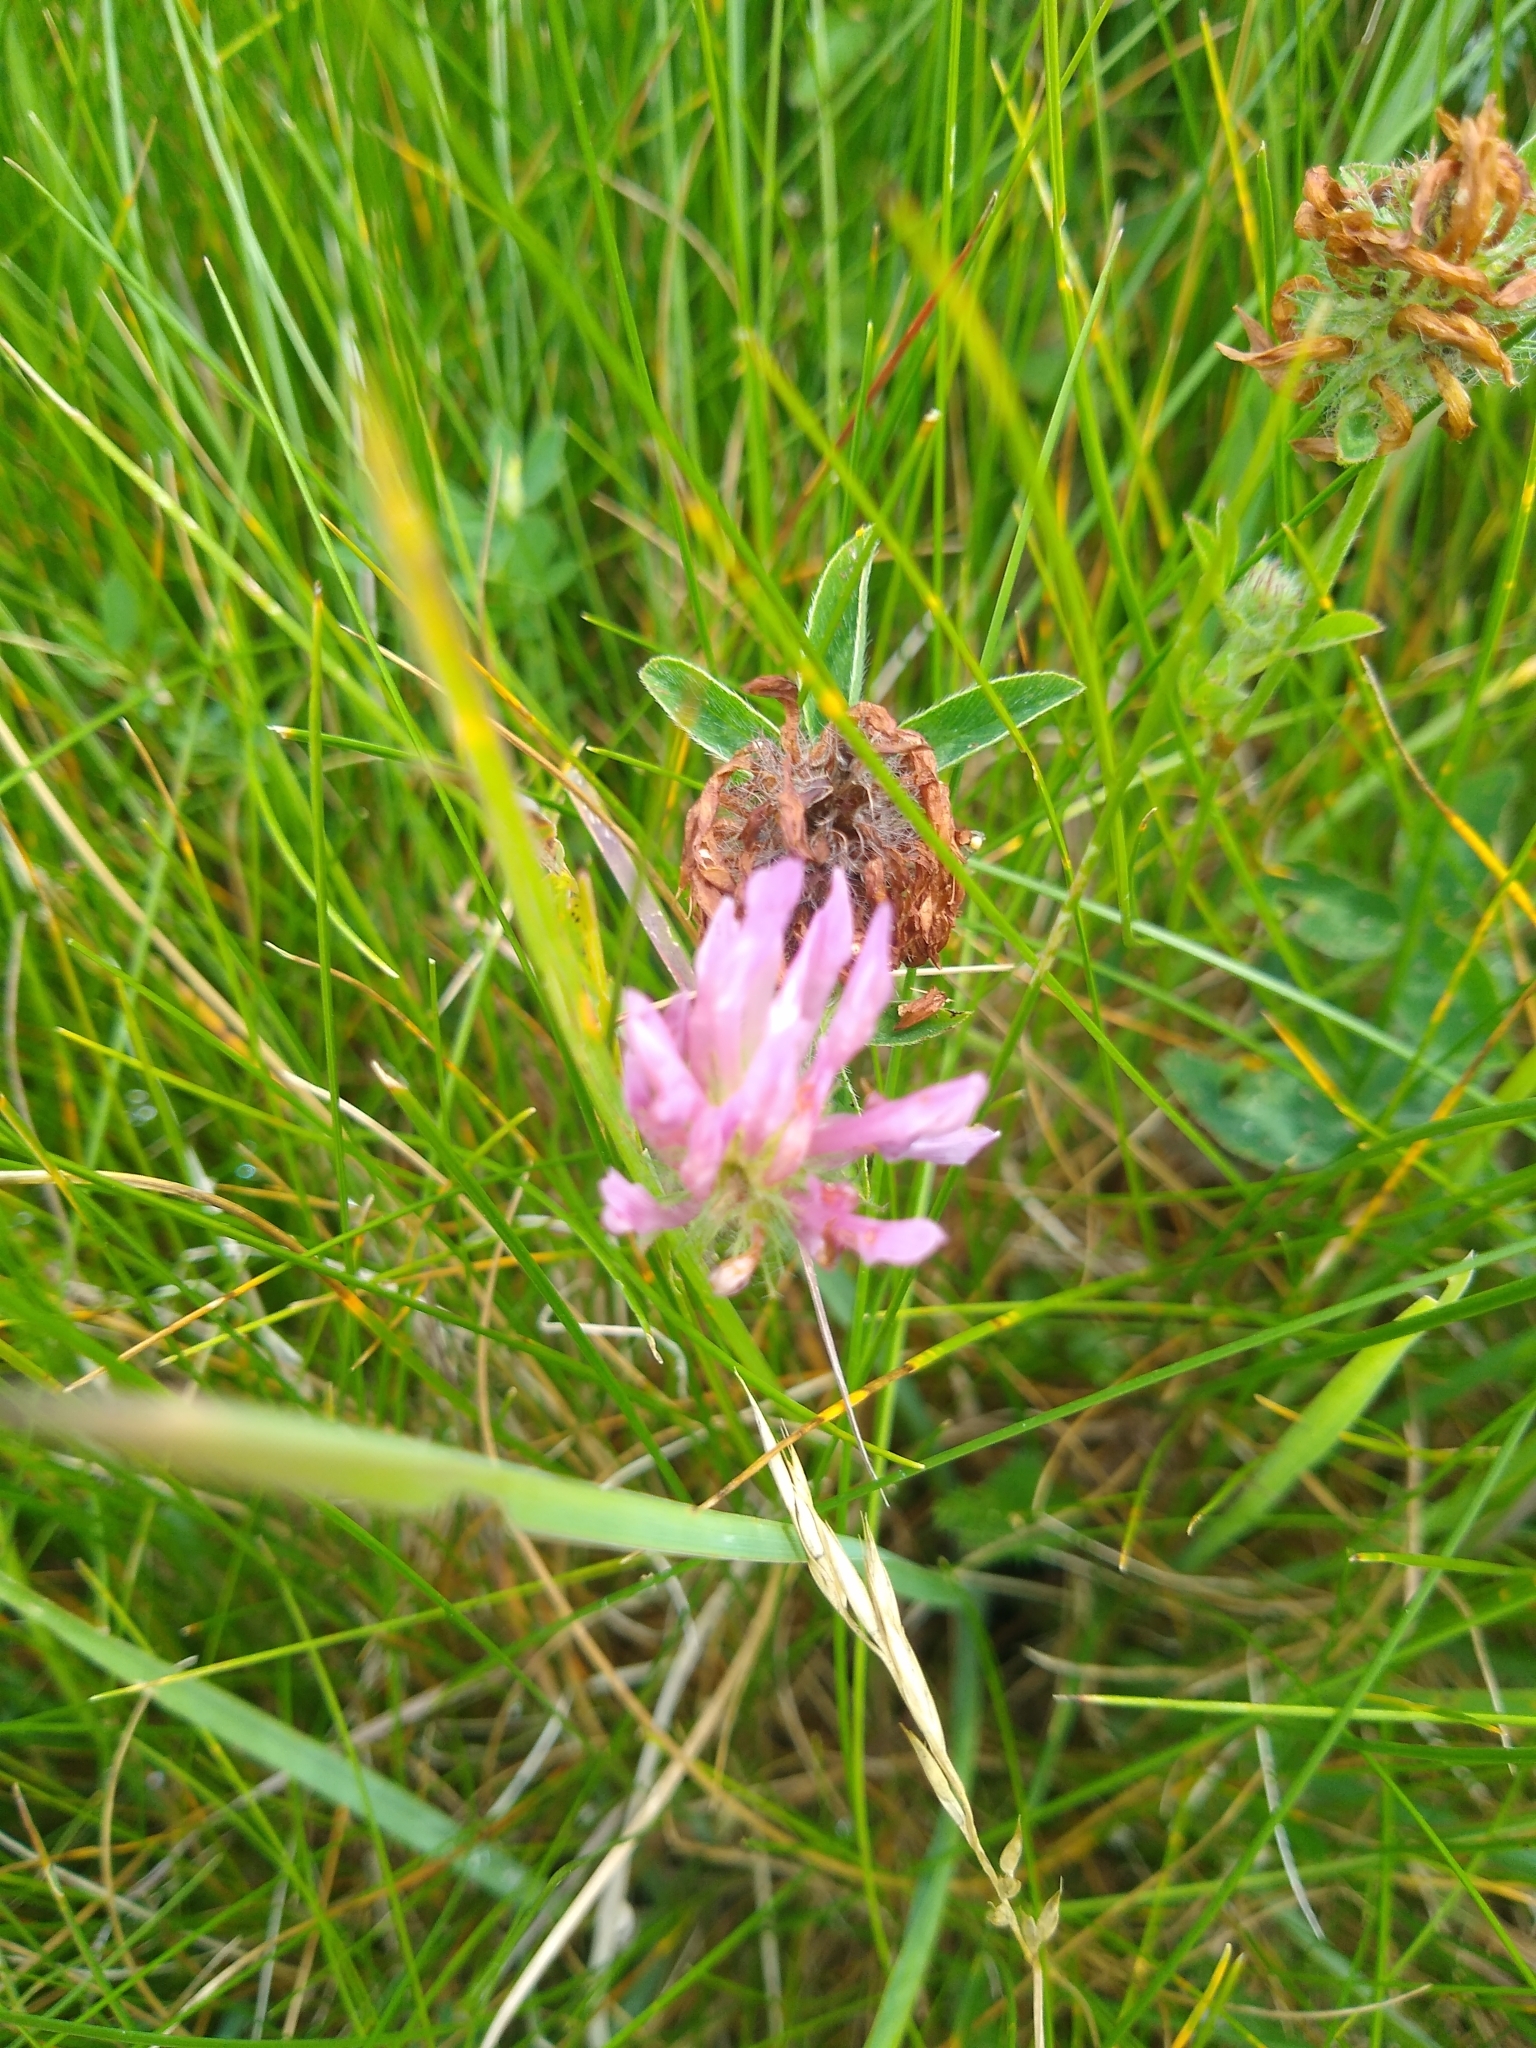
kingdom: Plantae
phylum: Tracheophyta
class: Magnoliopsida
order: Fabales
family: Fabaceae
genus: Trifolium
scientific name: Trifolium pratense
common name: Red clover
